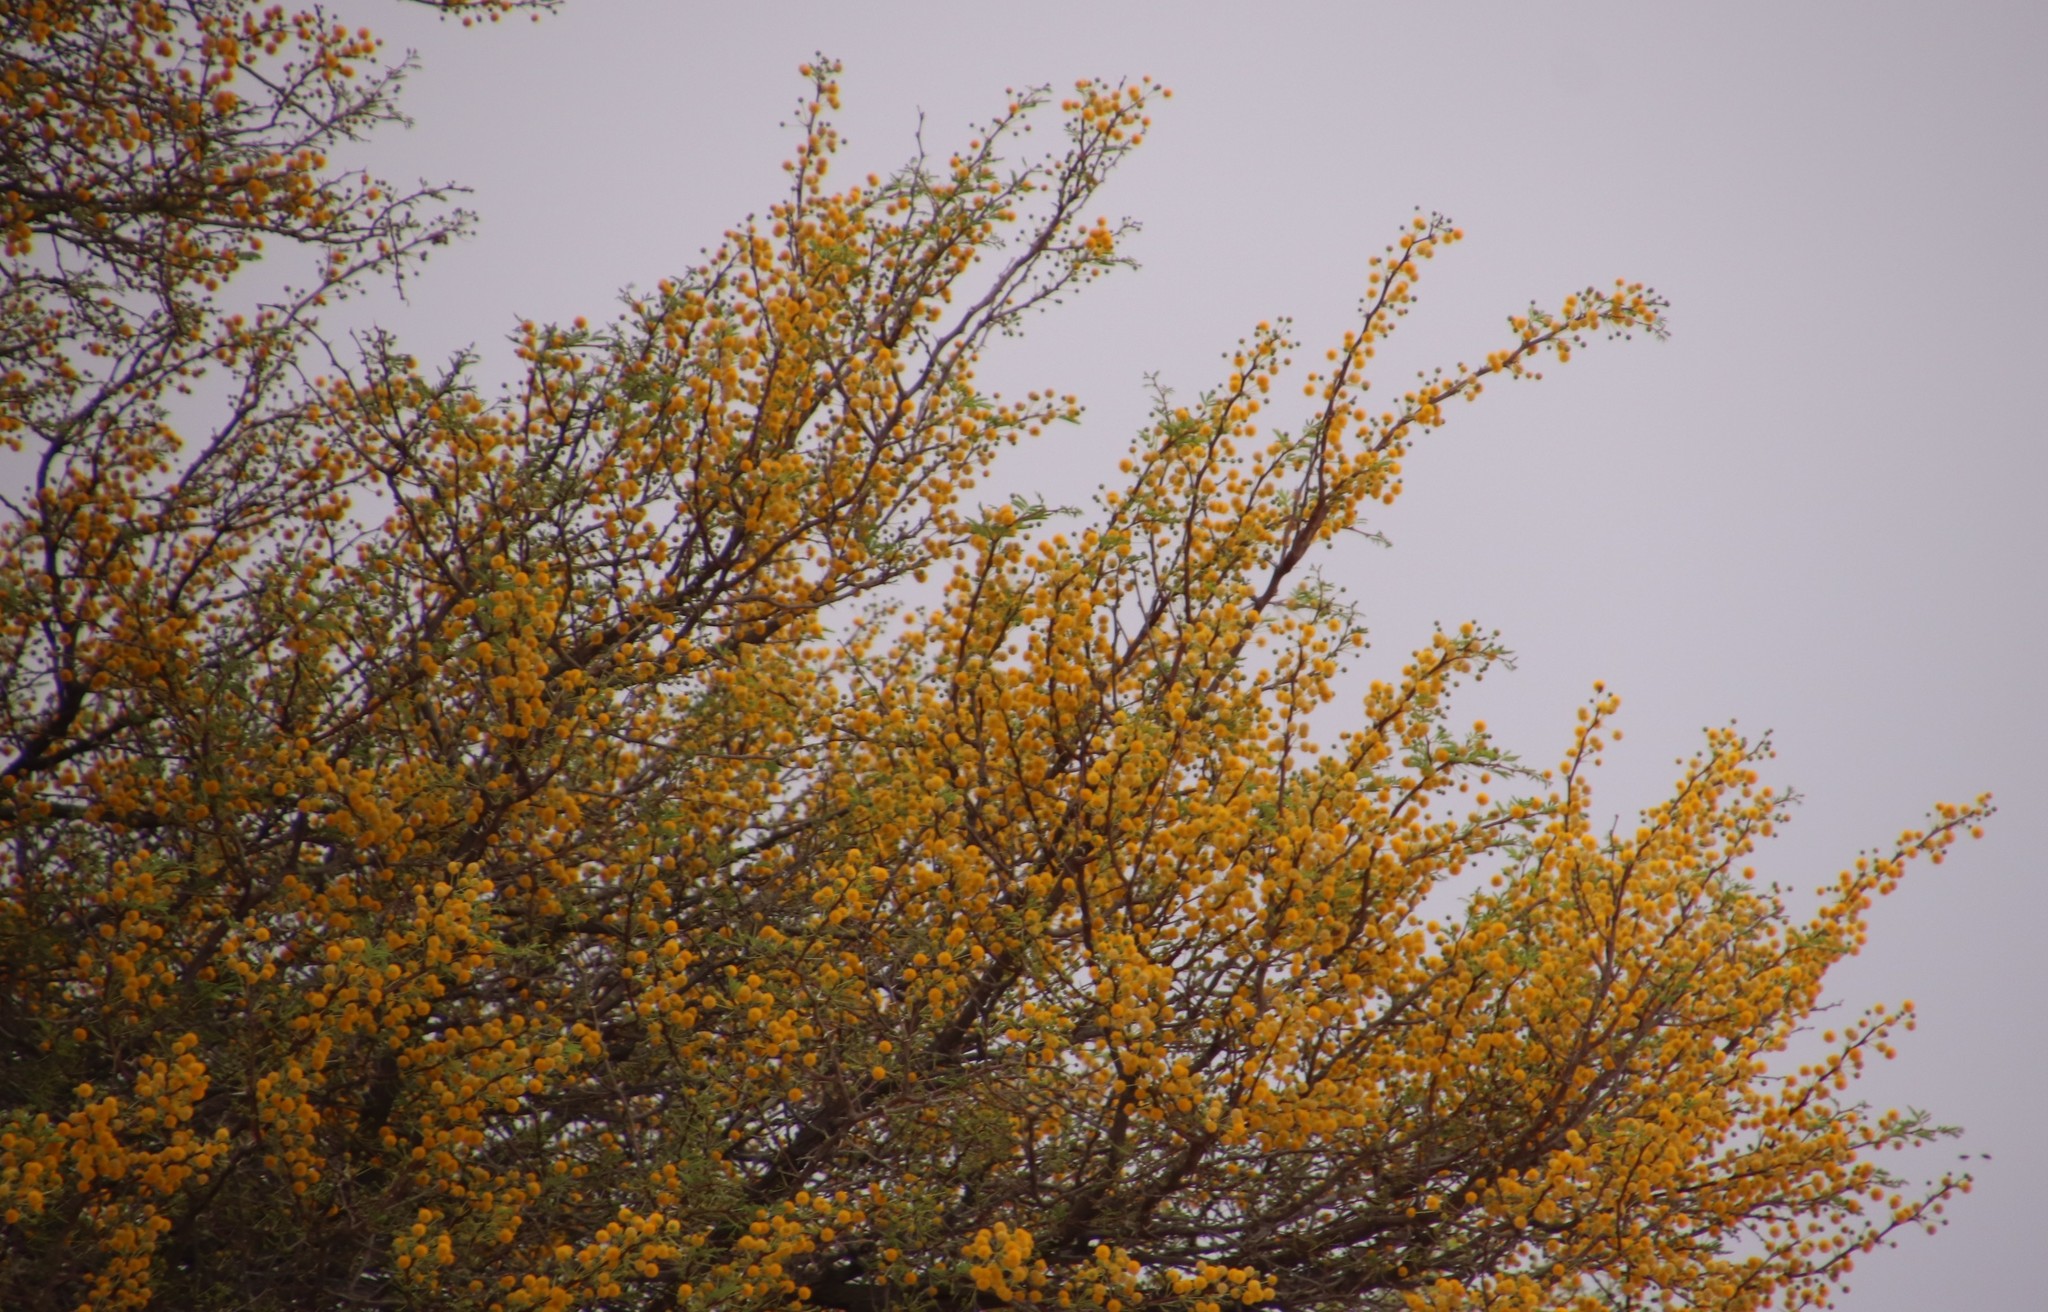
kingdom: Plantae
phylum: Tracheophyta
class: Magnoliopsida
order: Fabales
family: Fabaceae
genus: Vachellia
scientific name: Vachellia erioloba
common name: Camel thorn
